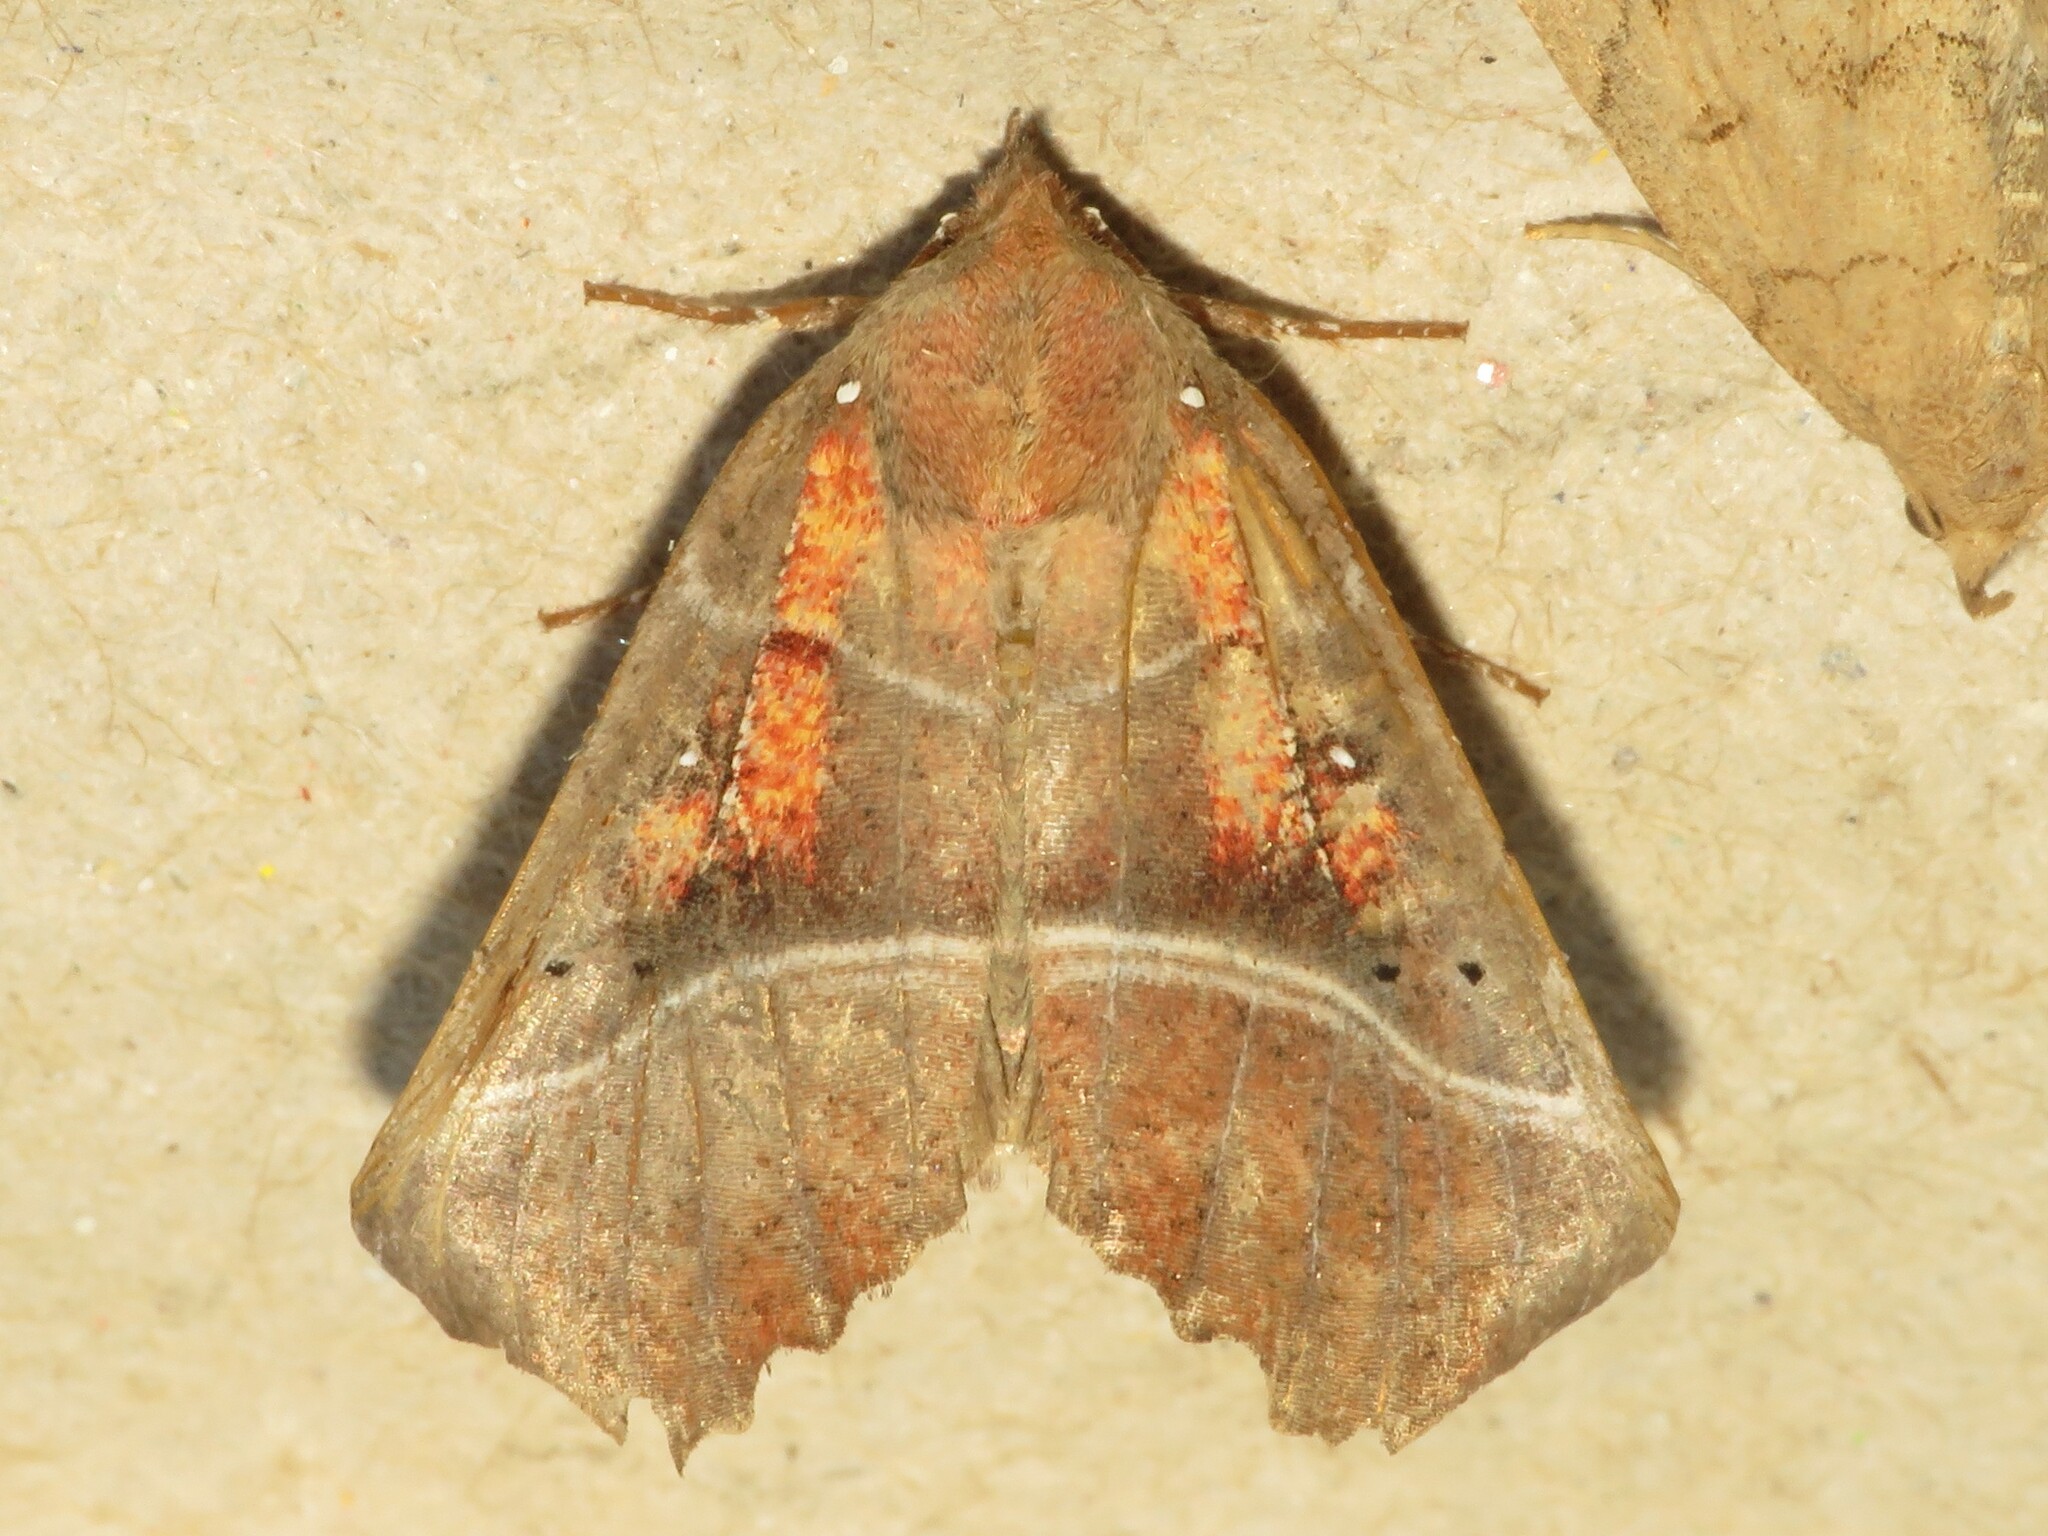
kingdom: Animalia
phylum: Arthropoda
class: Insecta
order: Lepidoptera
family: Erebidae
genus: Scoliopteryx
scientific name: Scoliopteryx libatrix
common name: Herald
